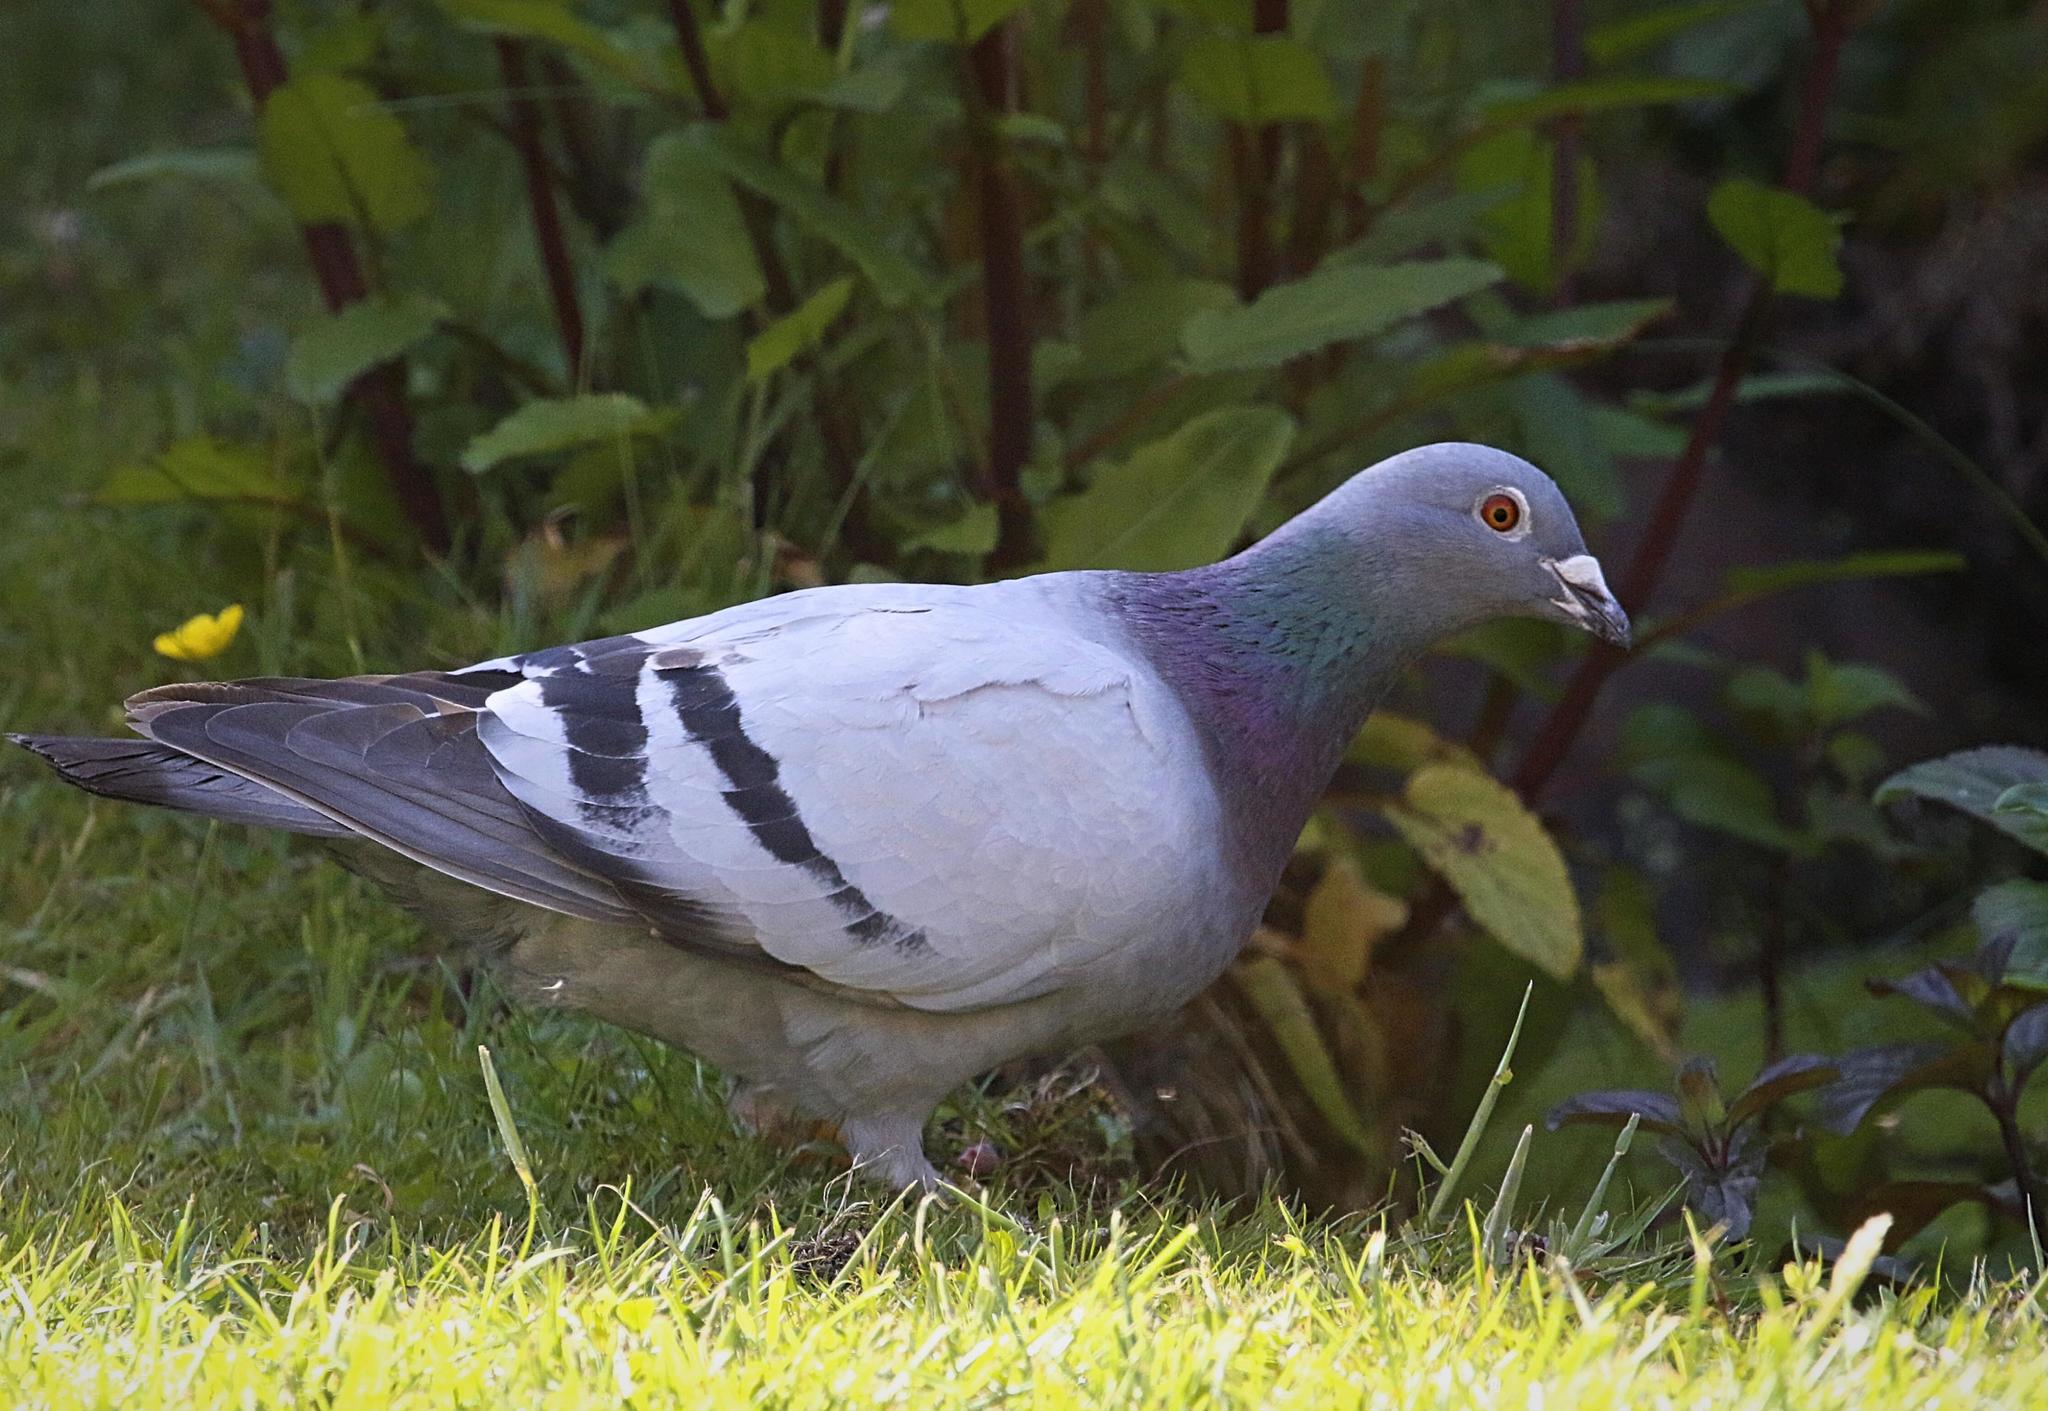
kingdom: Animalia
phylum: Chordata
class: Aves
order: Columbiformes
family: Columbidae
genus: Columba
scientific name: Columba livia
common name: Rock pigeon
